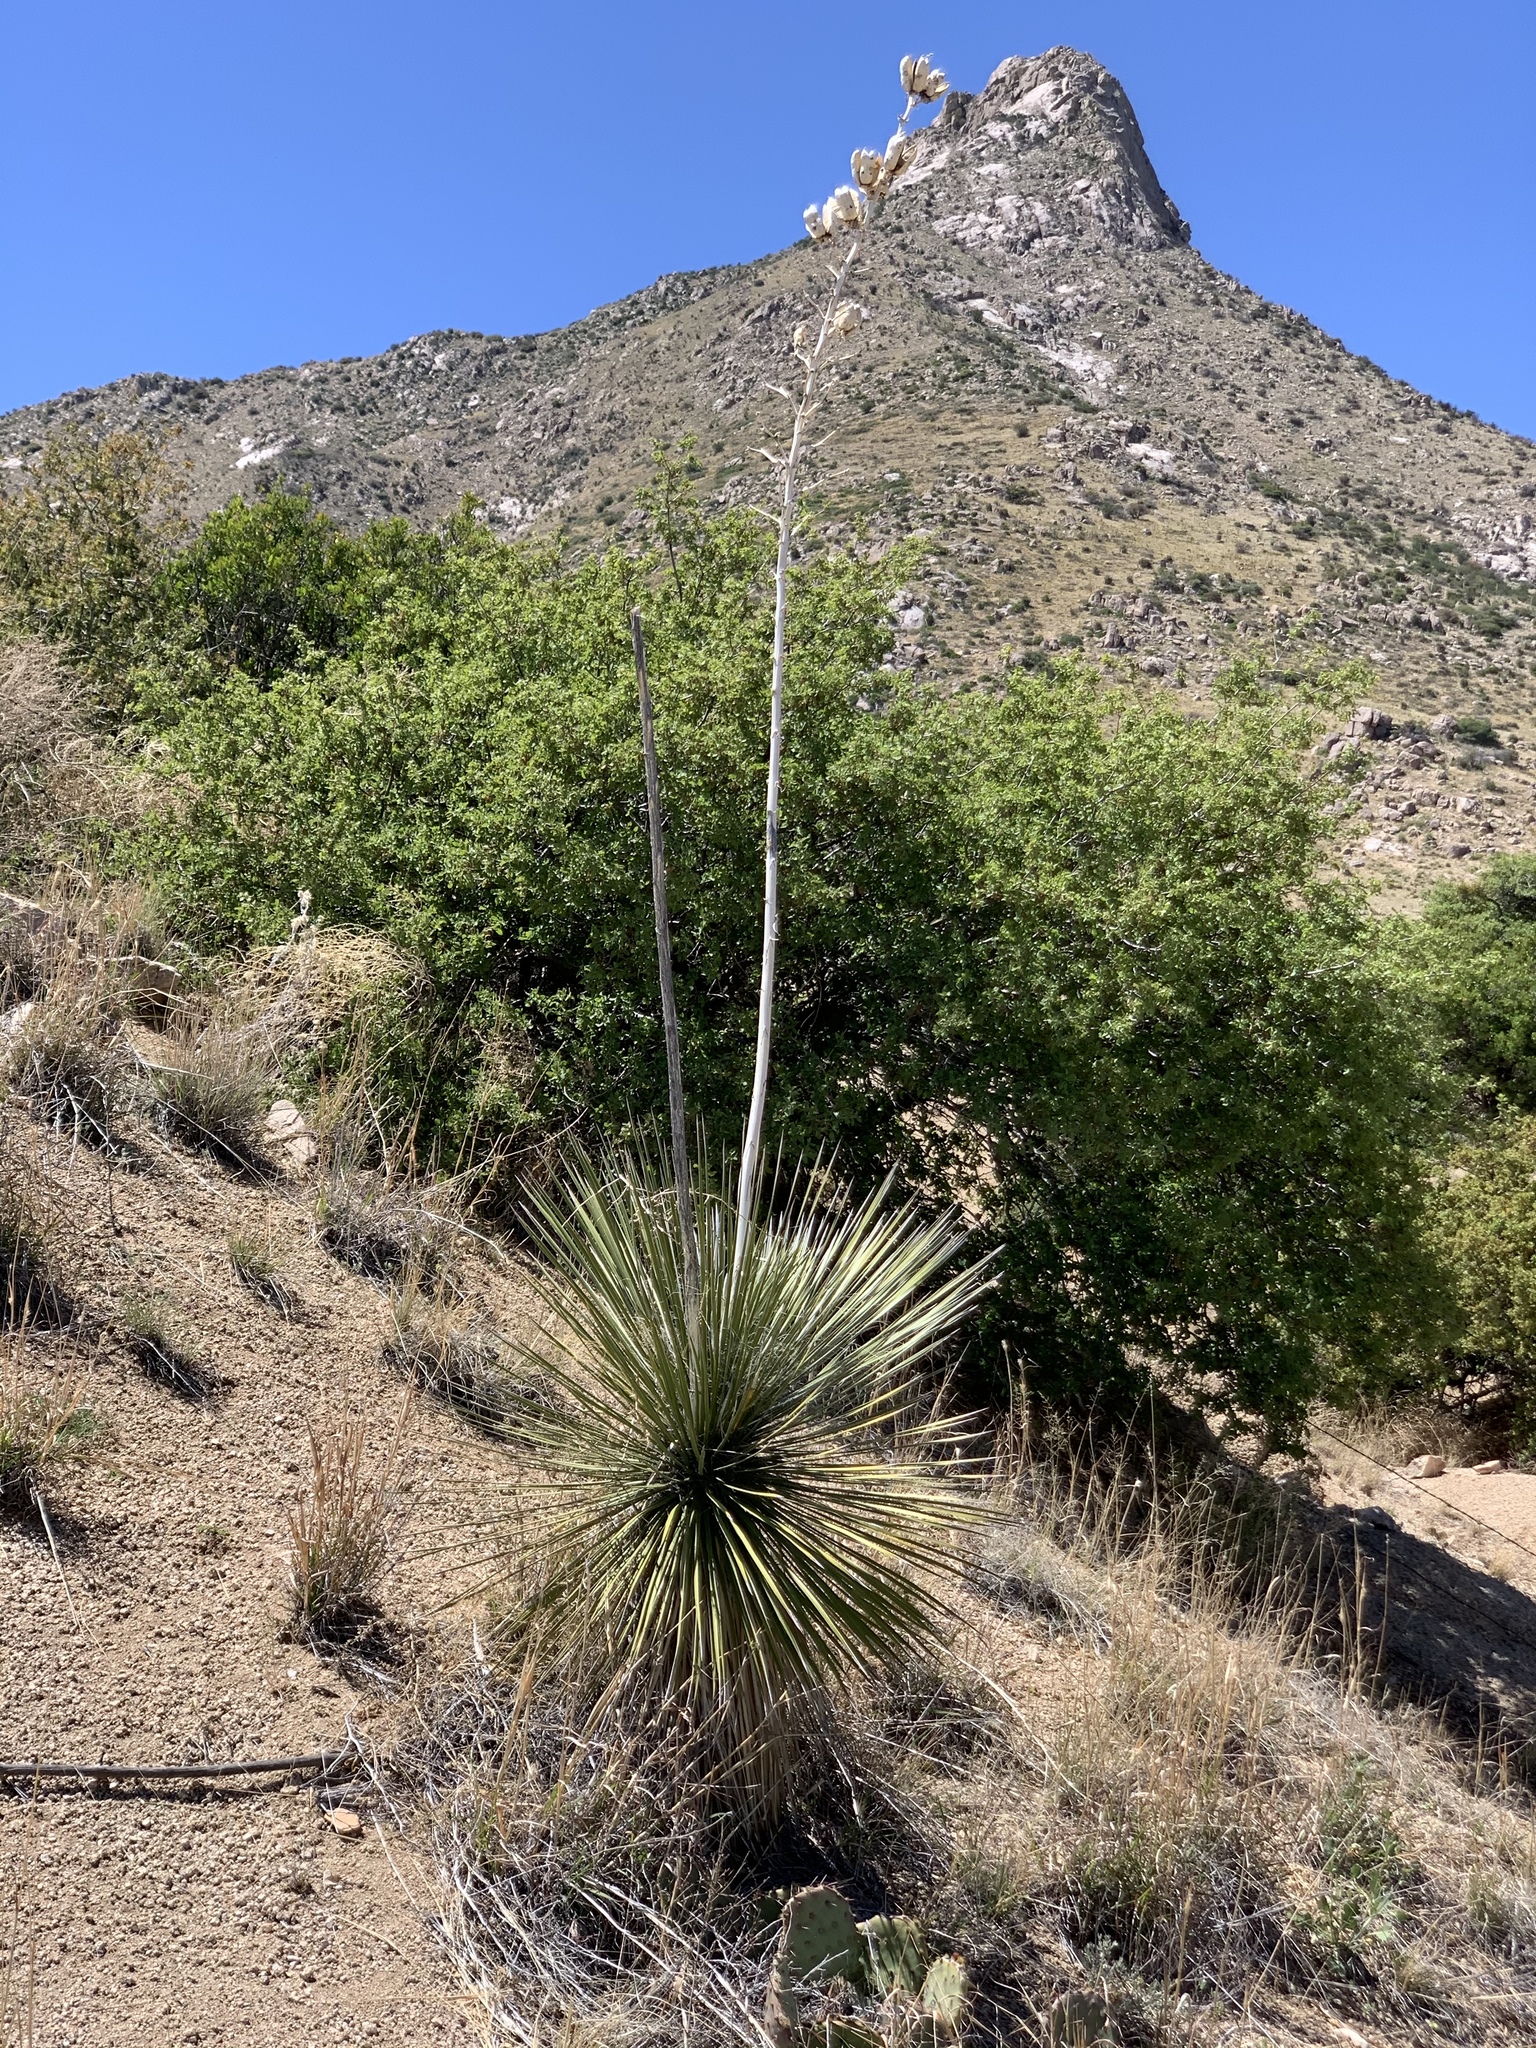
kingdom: Plantae
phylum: Tracheophyta
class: Liliopsida
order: Asparagales
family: Asparagaceae
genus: Yucca
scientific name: Yucca elata
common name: Palmella
